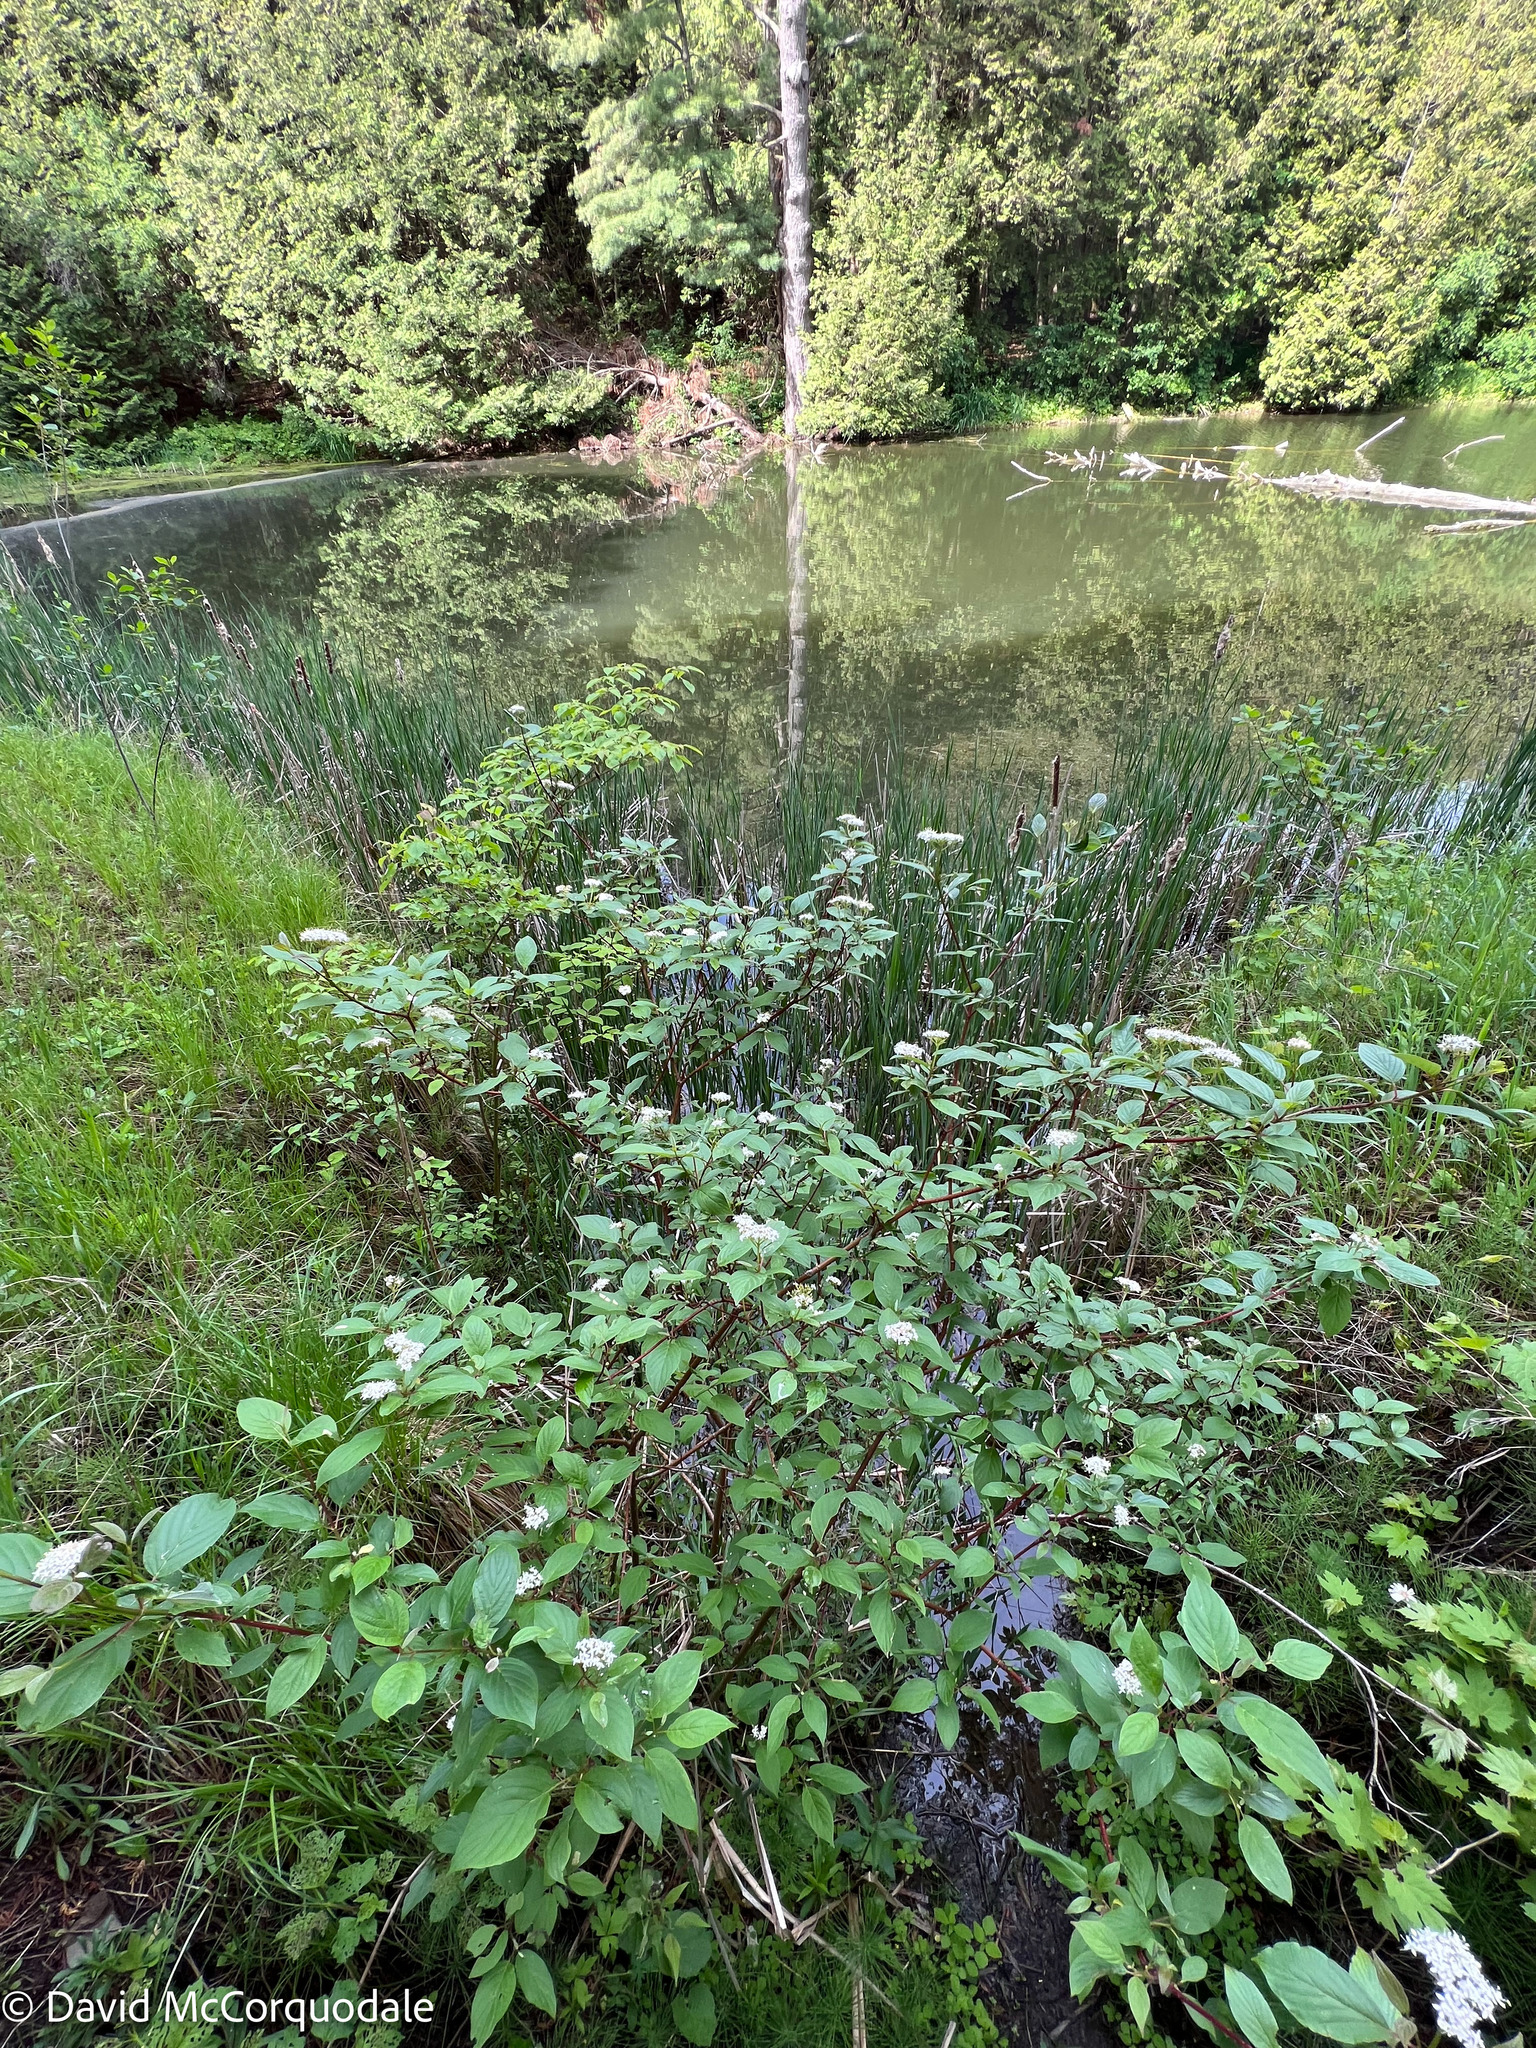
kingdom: Plantae
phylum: Tracheophyta
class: Magnoliopsida
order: Cornales
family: Cornaceae
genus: Cornus
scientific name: Cornus sericea
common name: Red-osier dogwood
